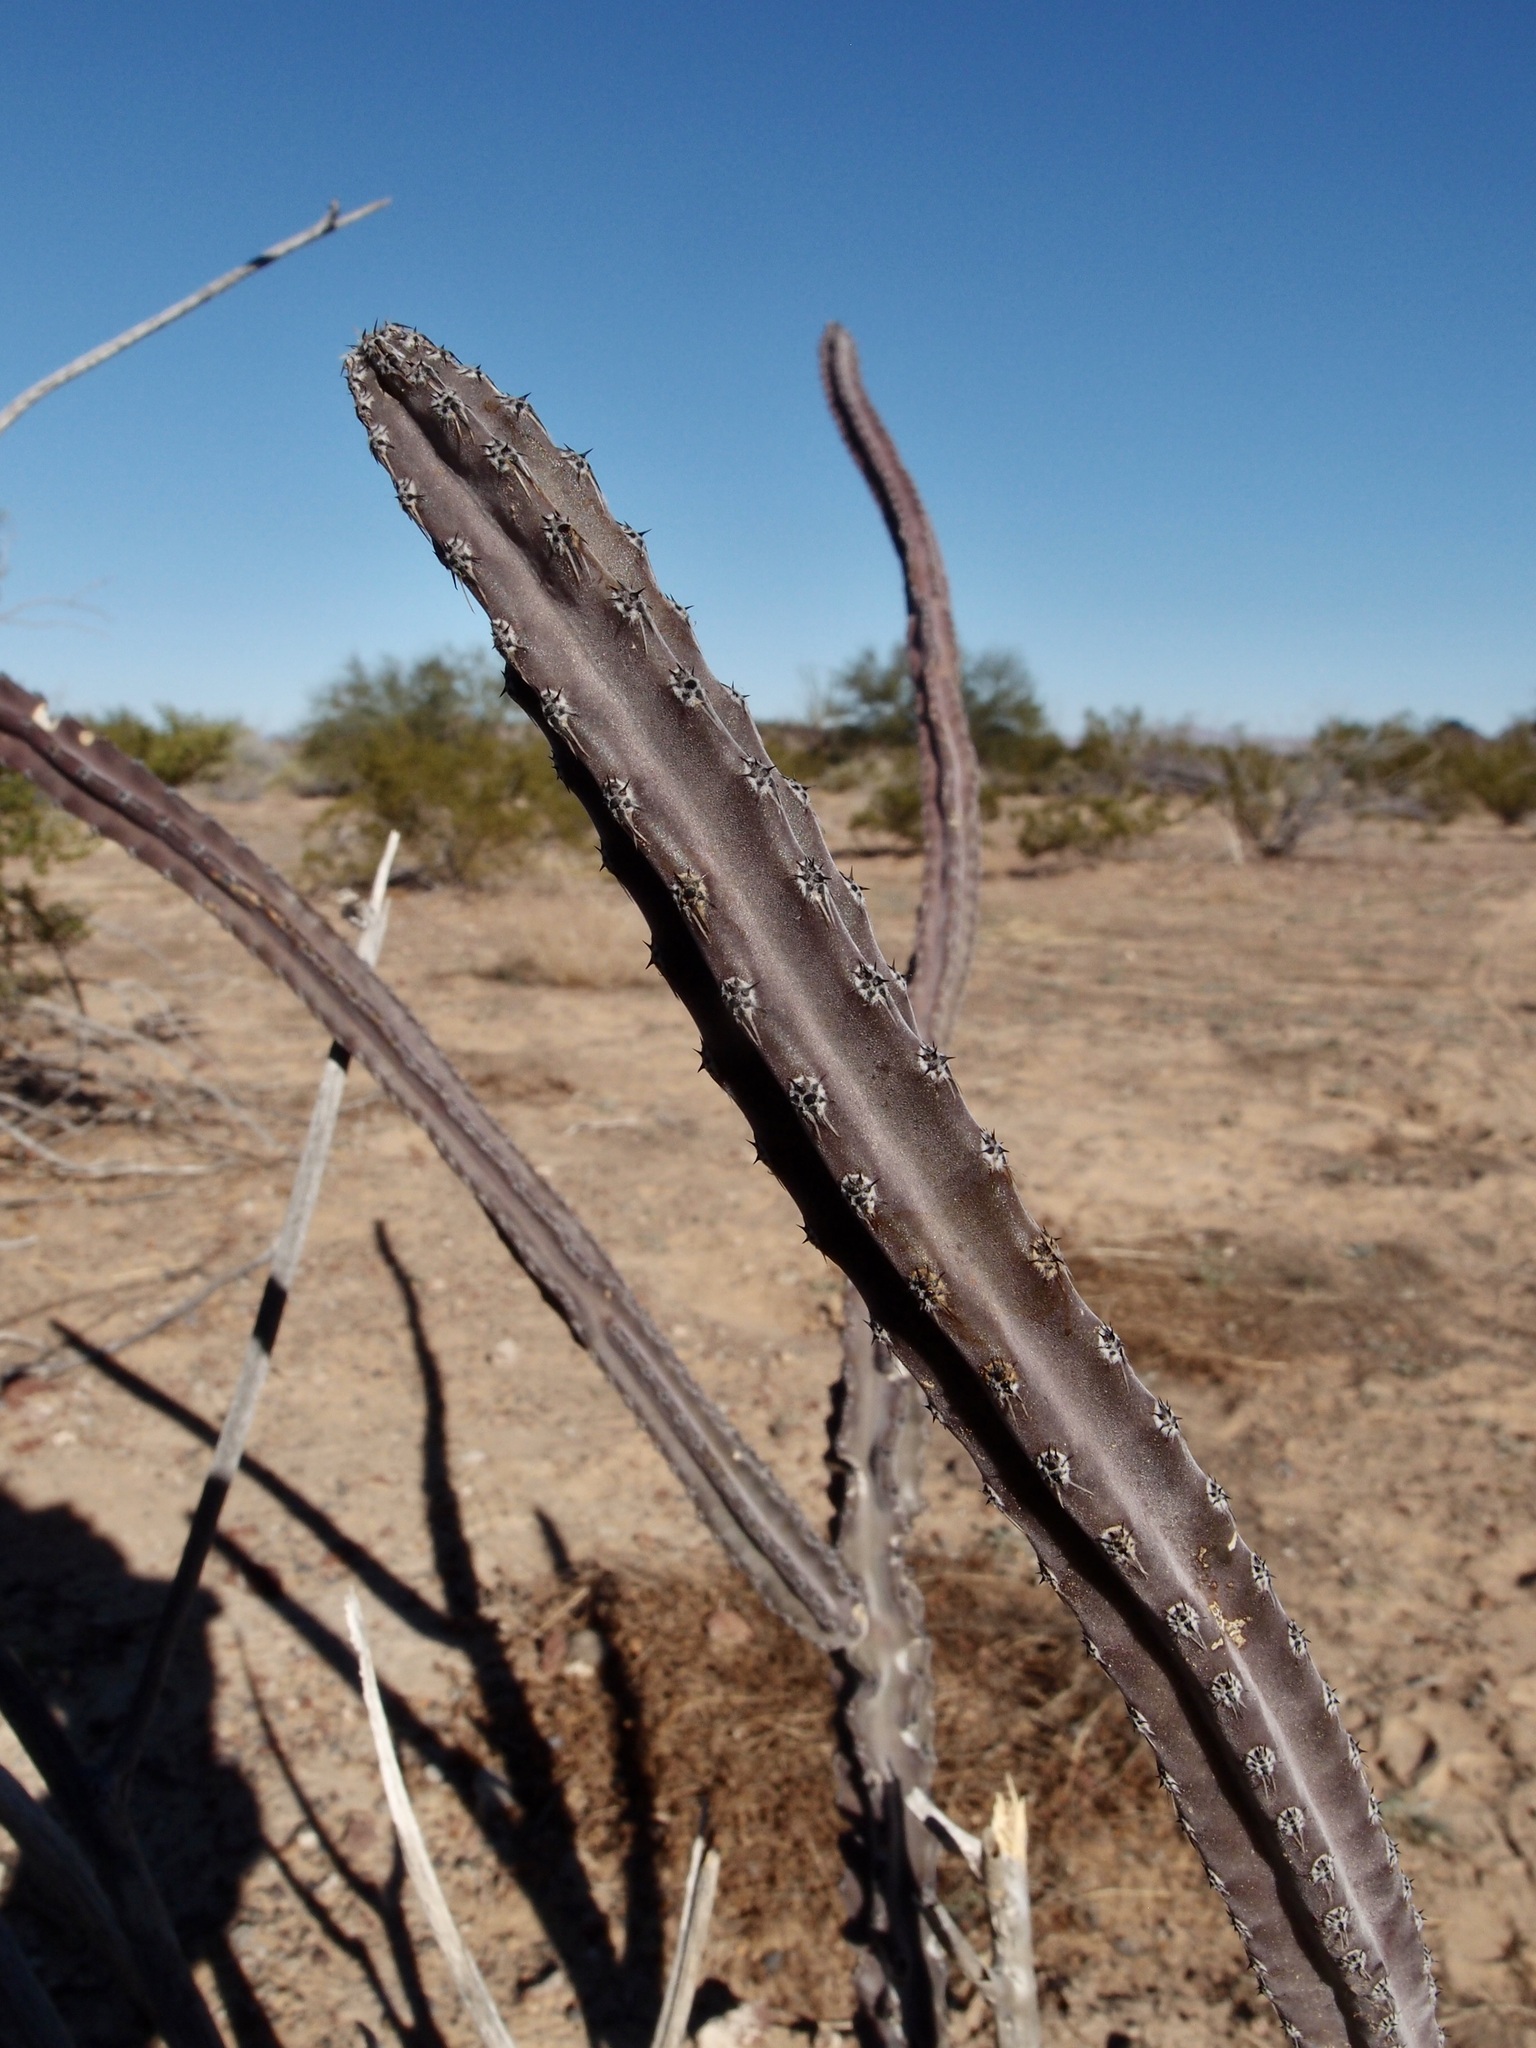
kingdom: Plantae
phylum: Tracheophyta
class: Magnoliopsida
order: Caryophyllales
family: Cactaceae
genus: Peniocereus
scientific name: Peniocereus greggii
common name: Desert night-blooming cereus
